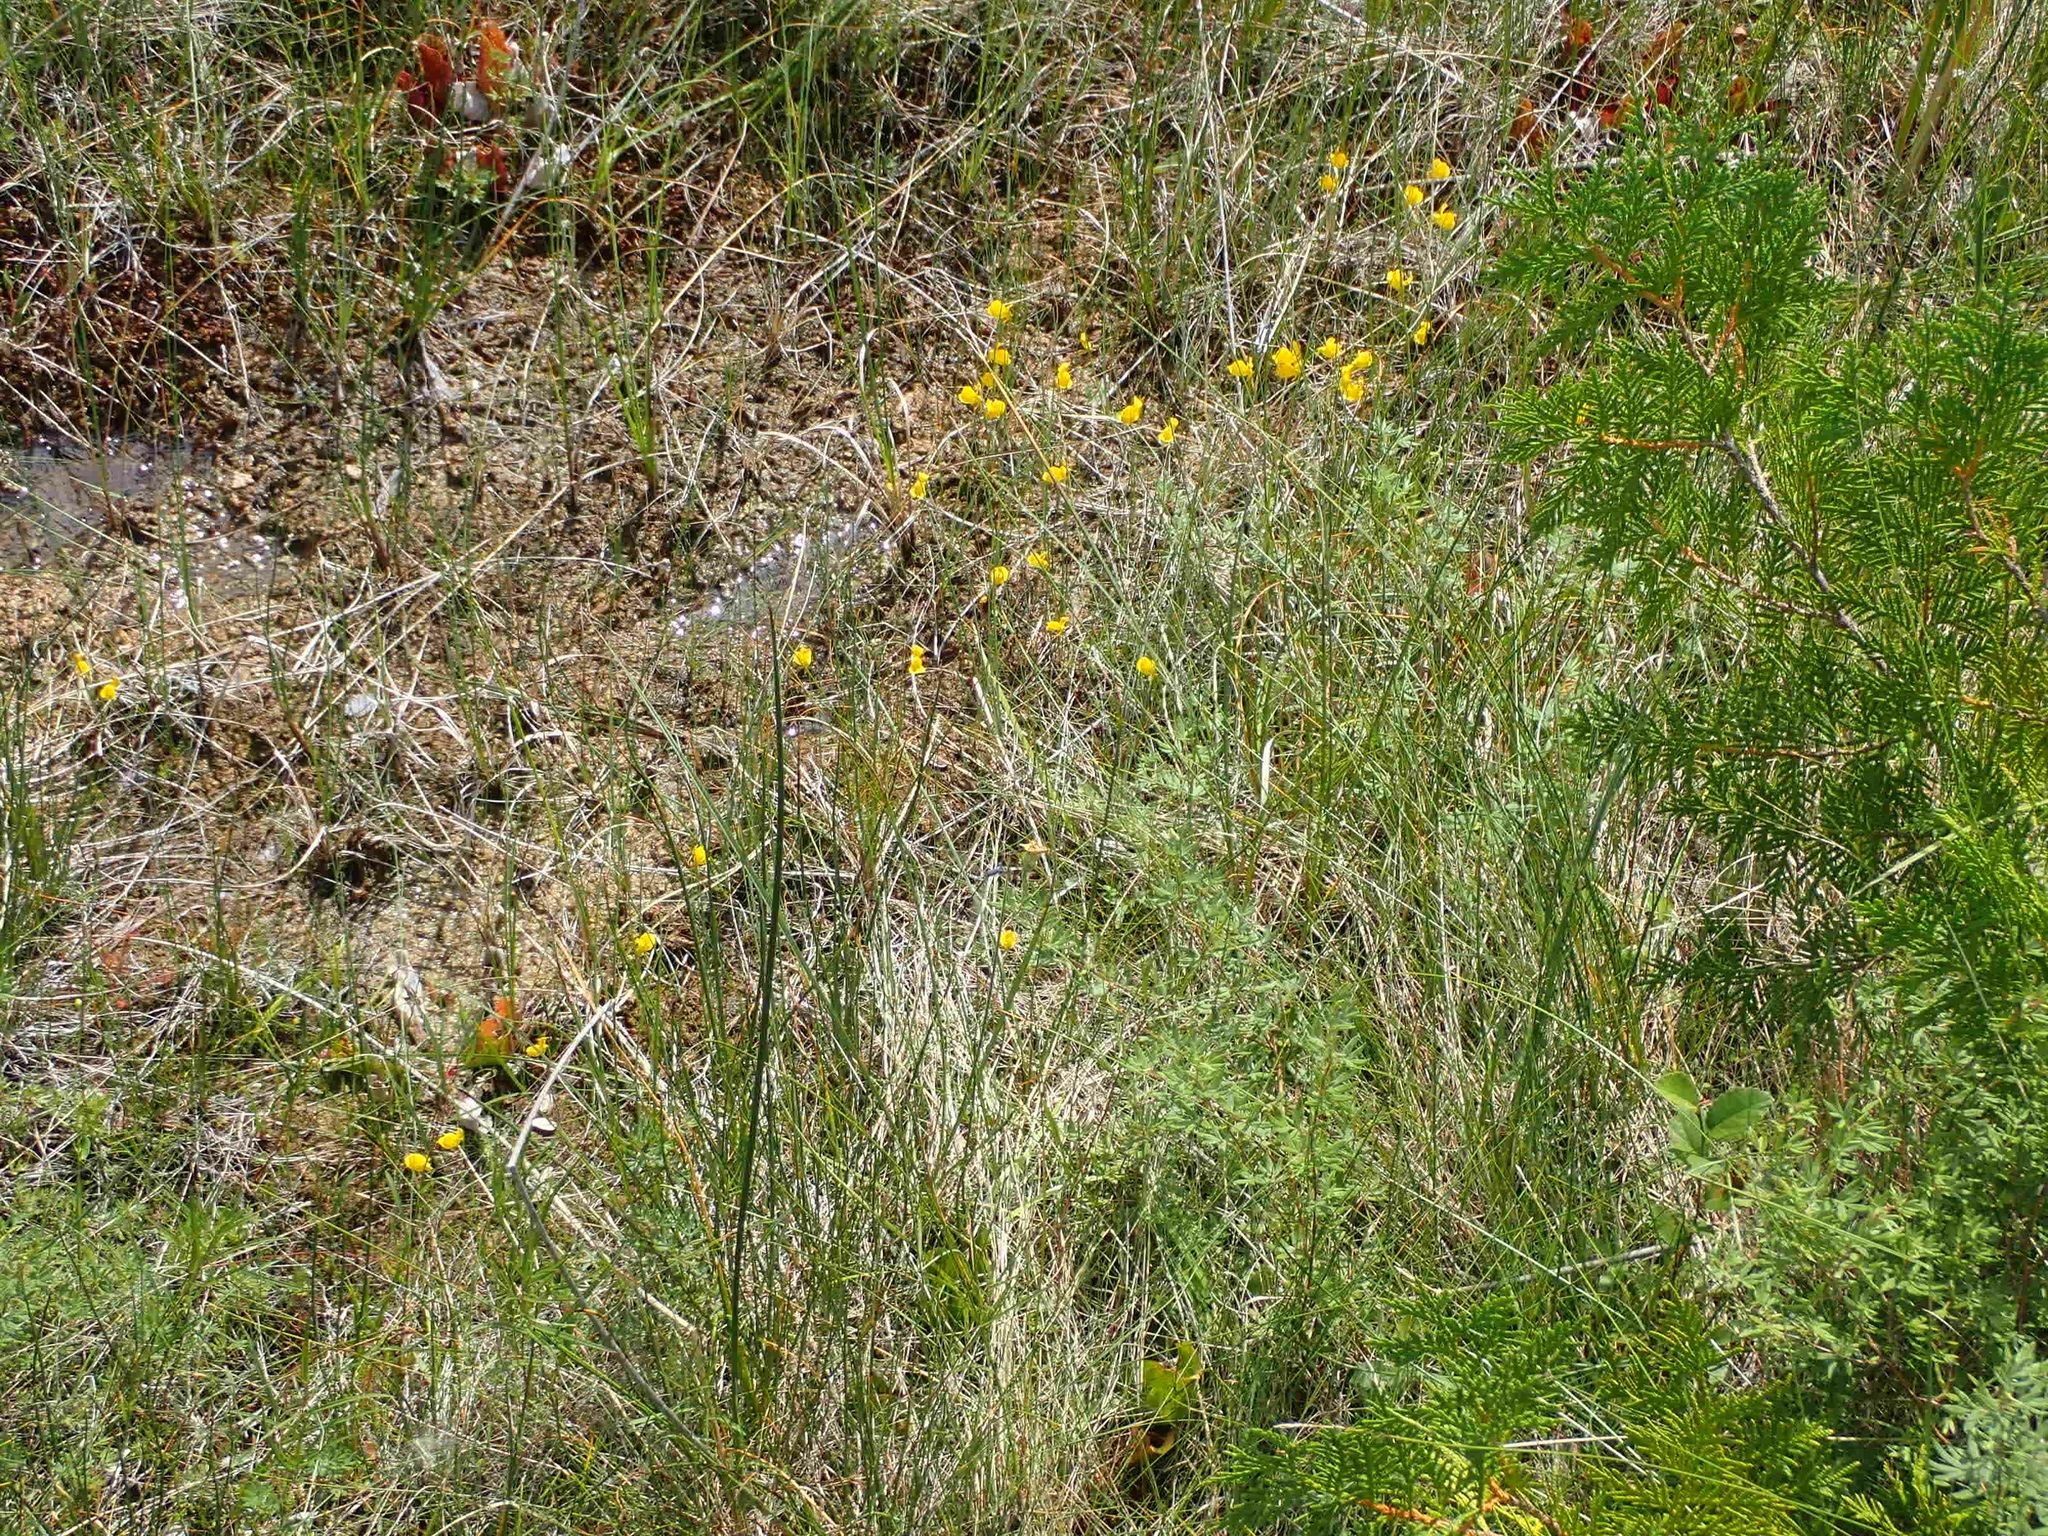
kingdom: Plantae
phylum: Tracheophyta
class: Magnoliopsida
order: Lamiales
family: Lentibulariaceae
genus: Utricularia
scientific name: Utricularia cornuta
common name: Horned bladderwort
